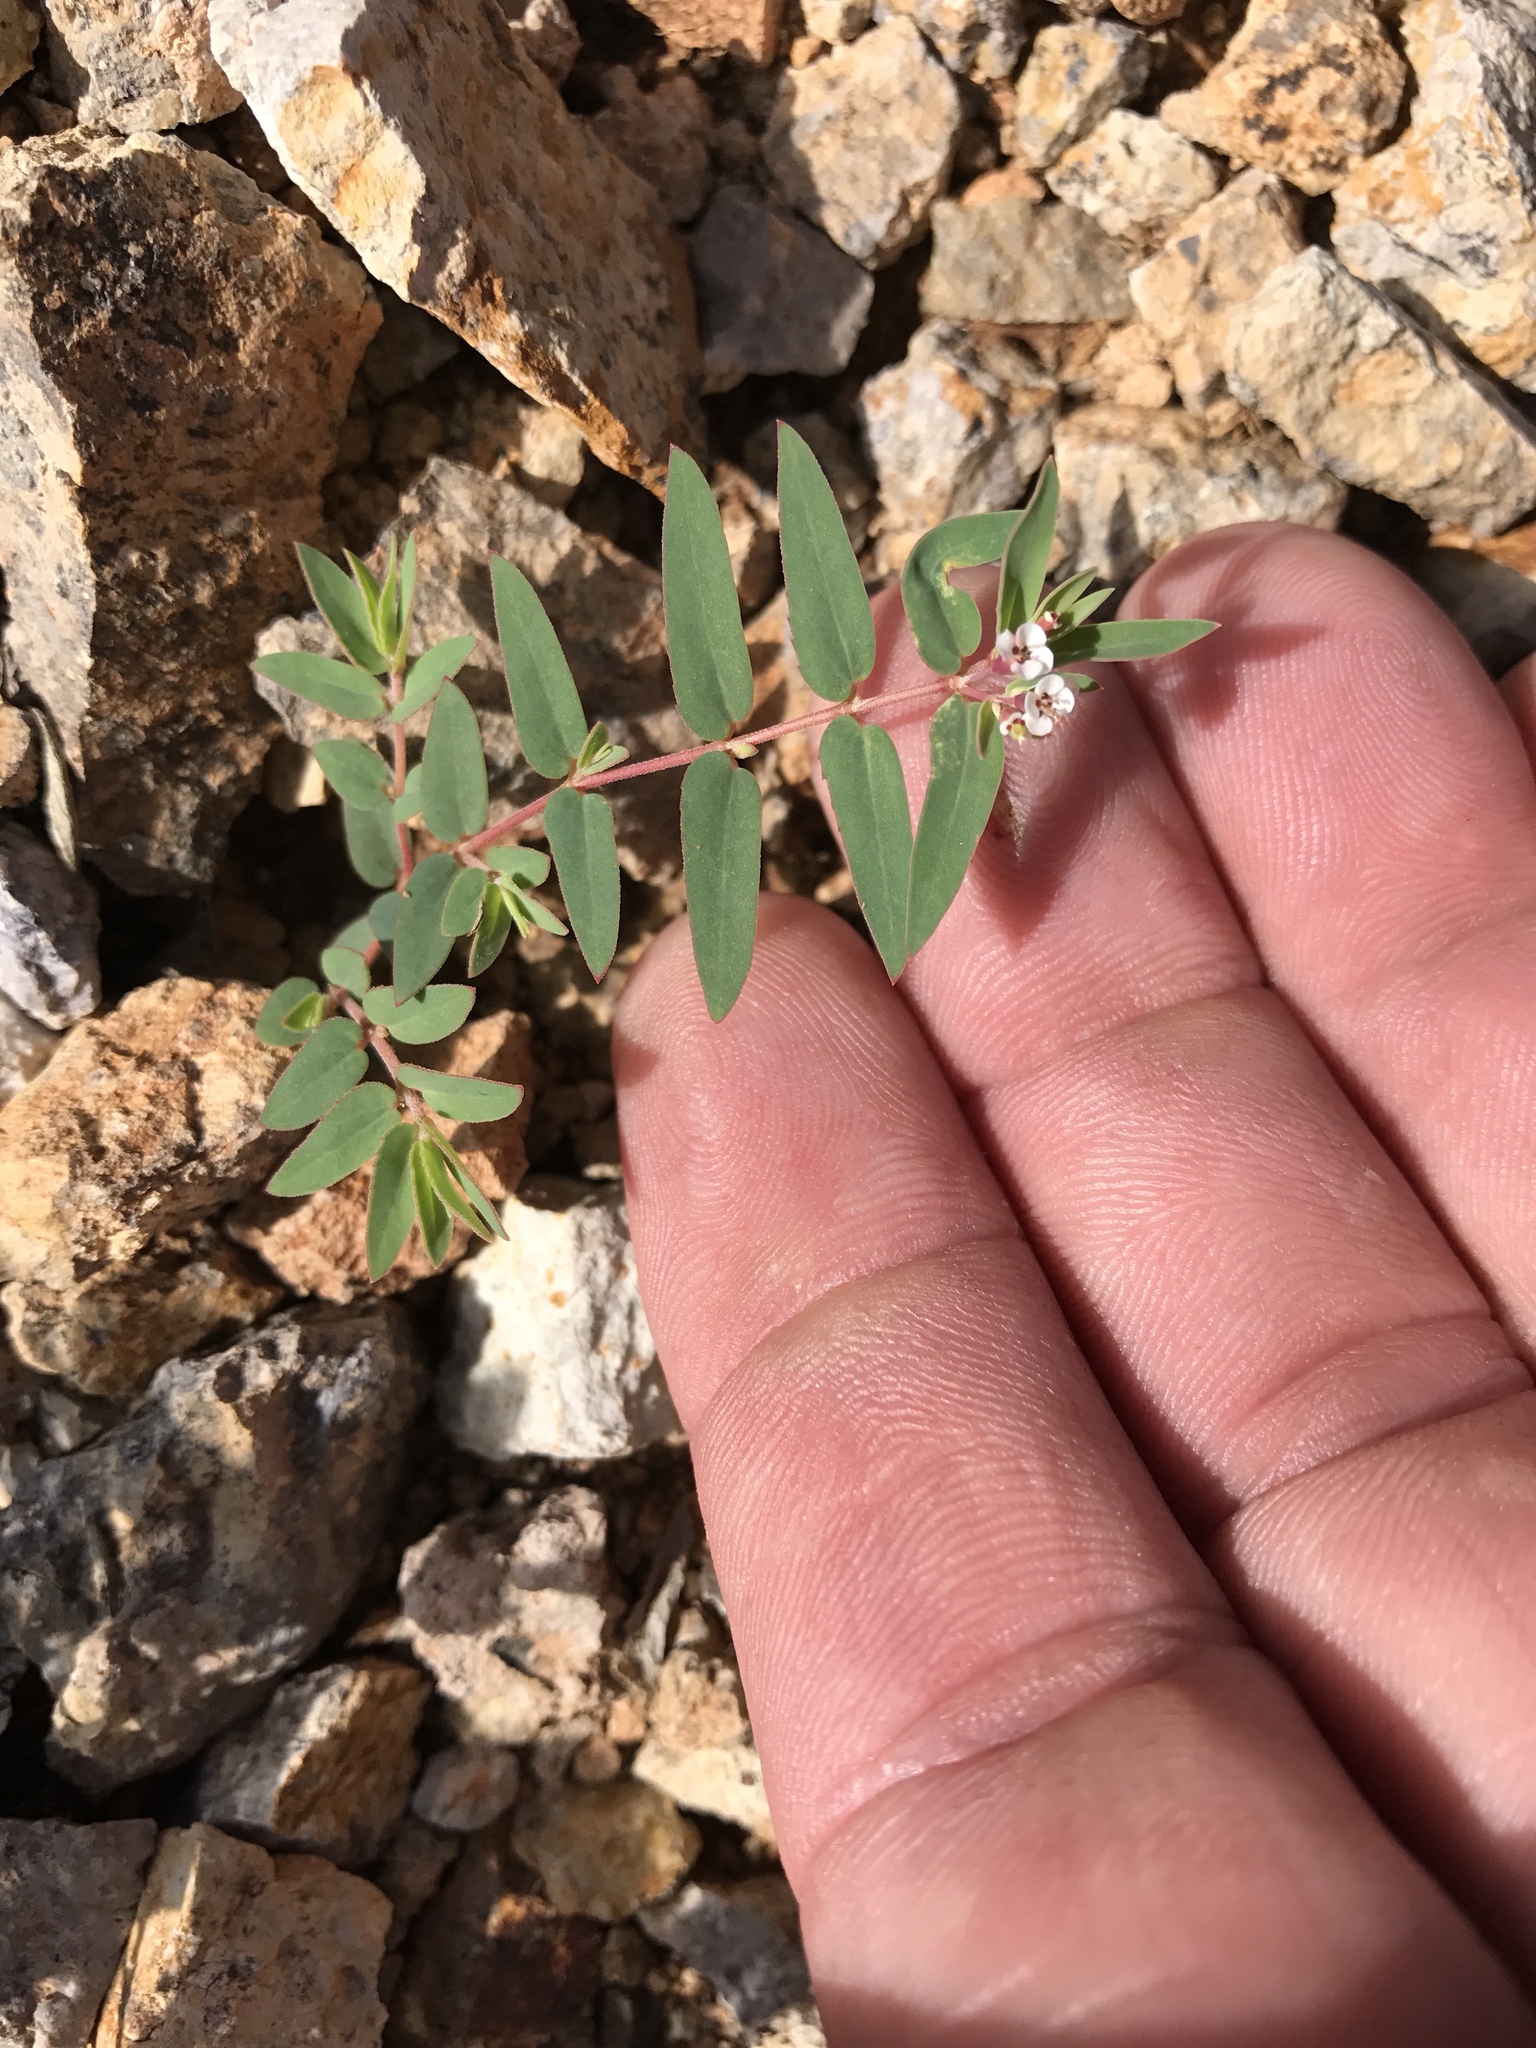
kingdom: Plantae
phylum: Tracheophyta
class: Magnoliopsida
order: Malpighiales
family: Euphorbiaceae
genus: Euphorbia
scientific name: Euphorbia capitellata
